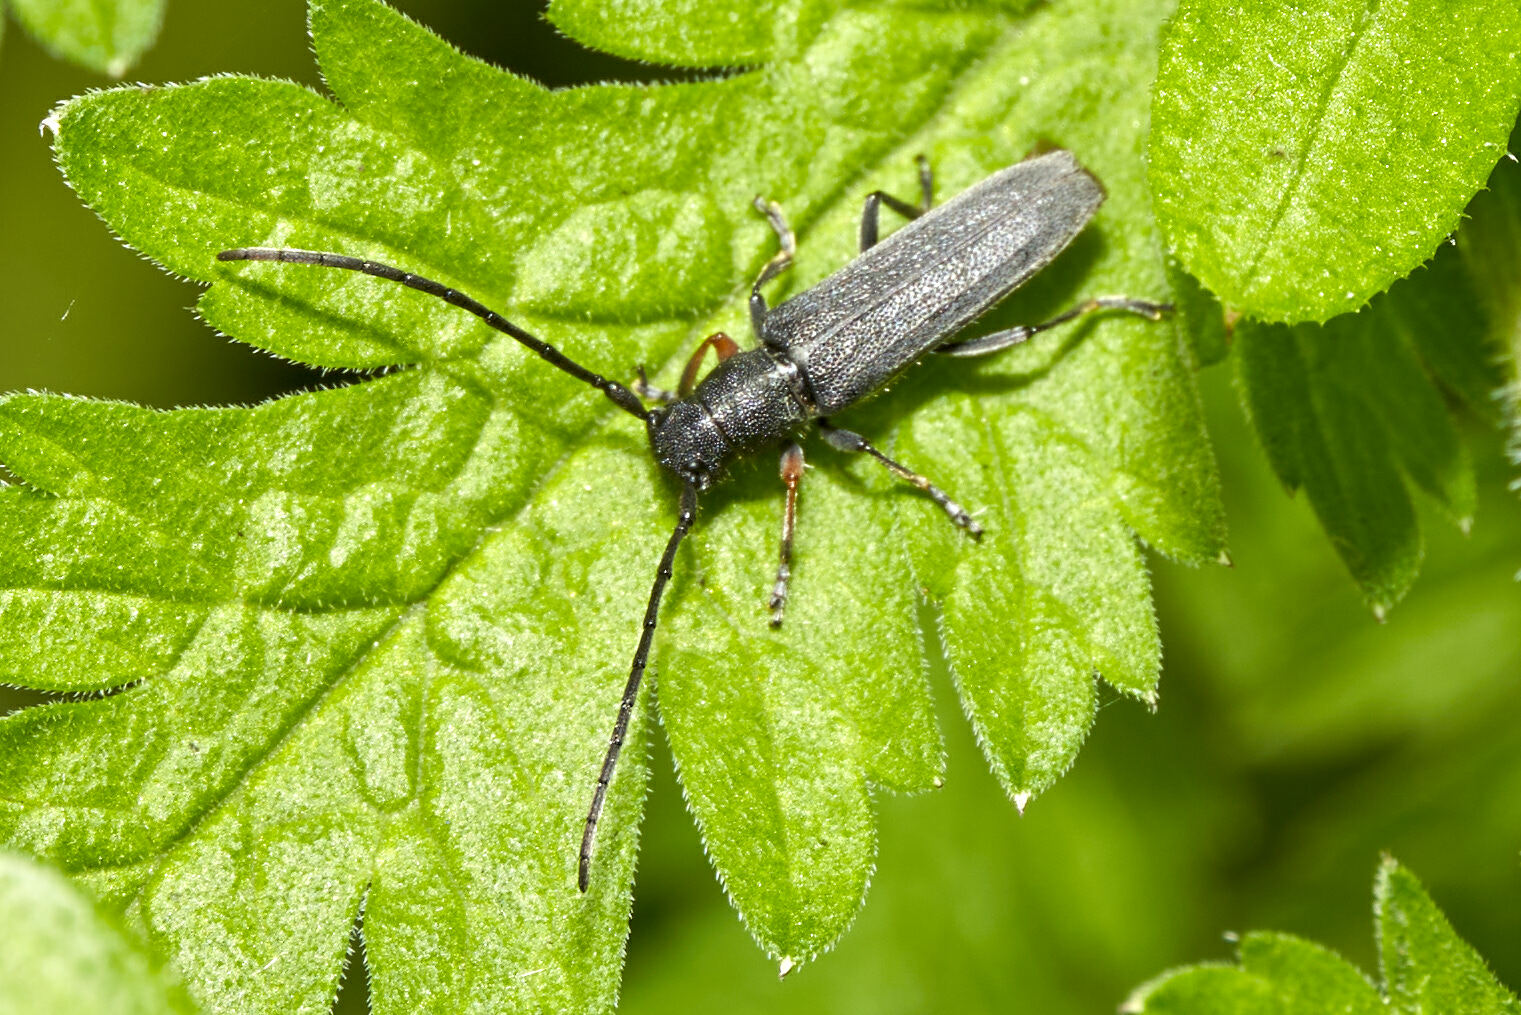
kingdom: Animalia
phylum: Arthropoda
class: Insecta
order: Coleoptera
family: Cerambycidae
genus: Phytoecia
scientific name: Phytoecia cylindrica
